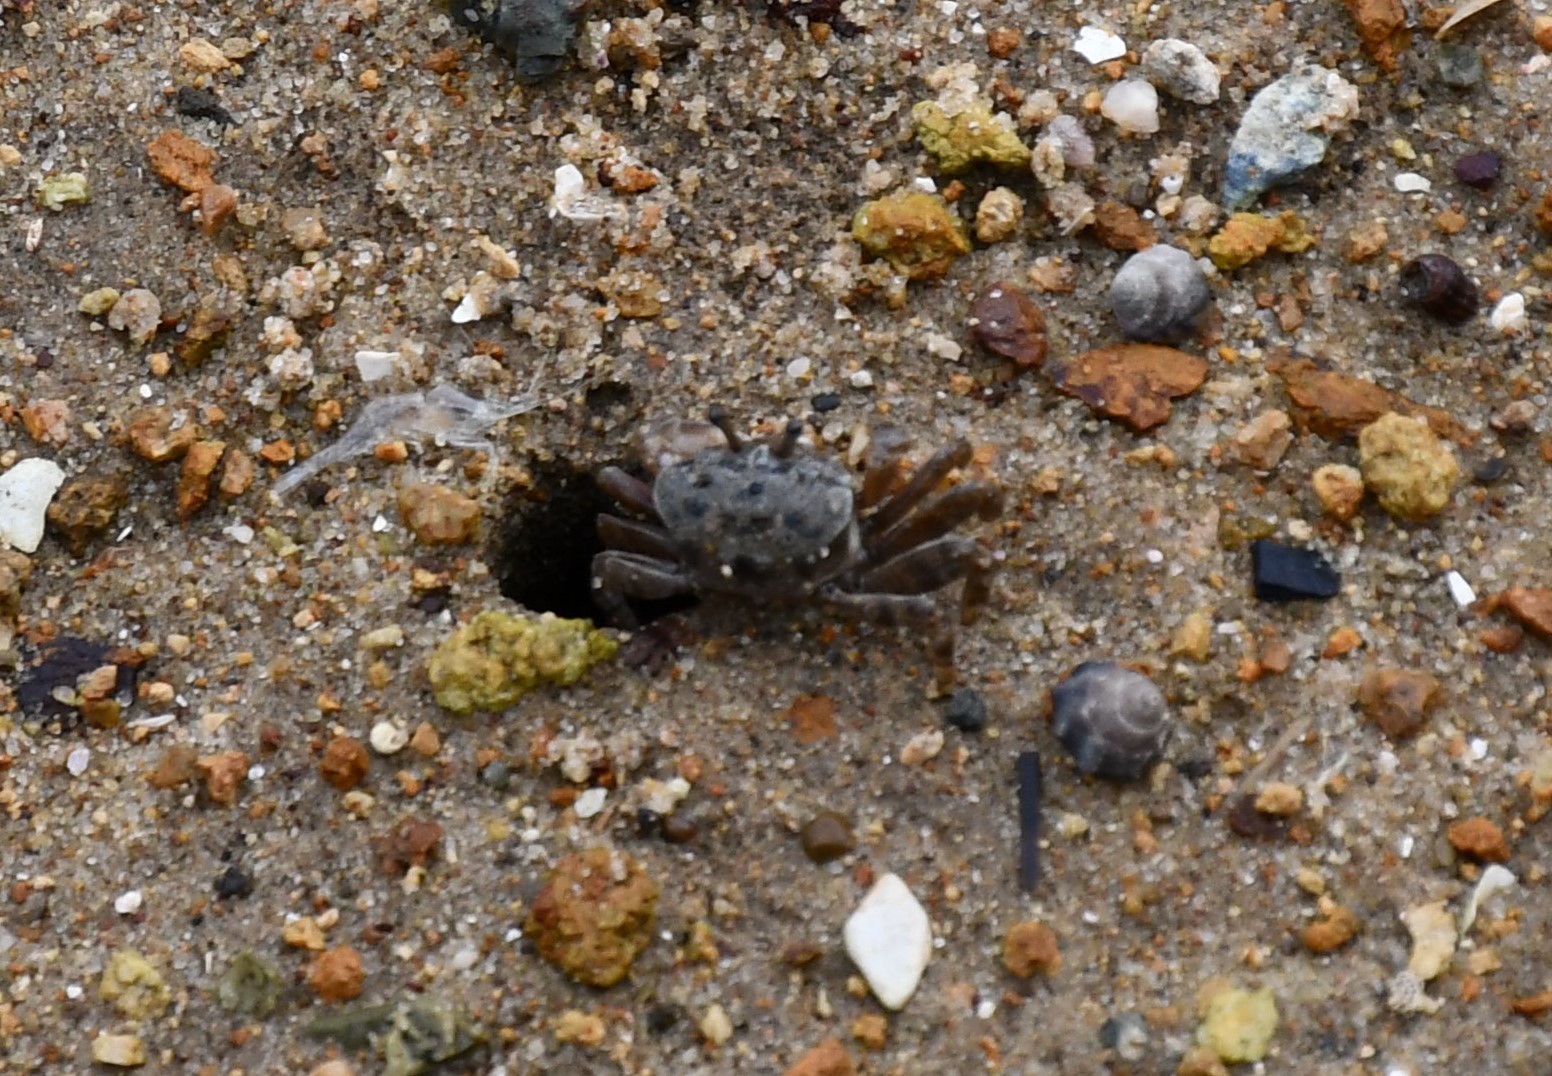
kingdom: Animalia
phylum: Arthropoda
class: Malacostraca
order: Decapoda
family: Heloeciidae
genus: Heloecius
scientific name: Heloecius cordiformis
